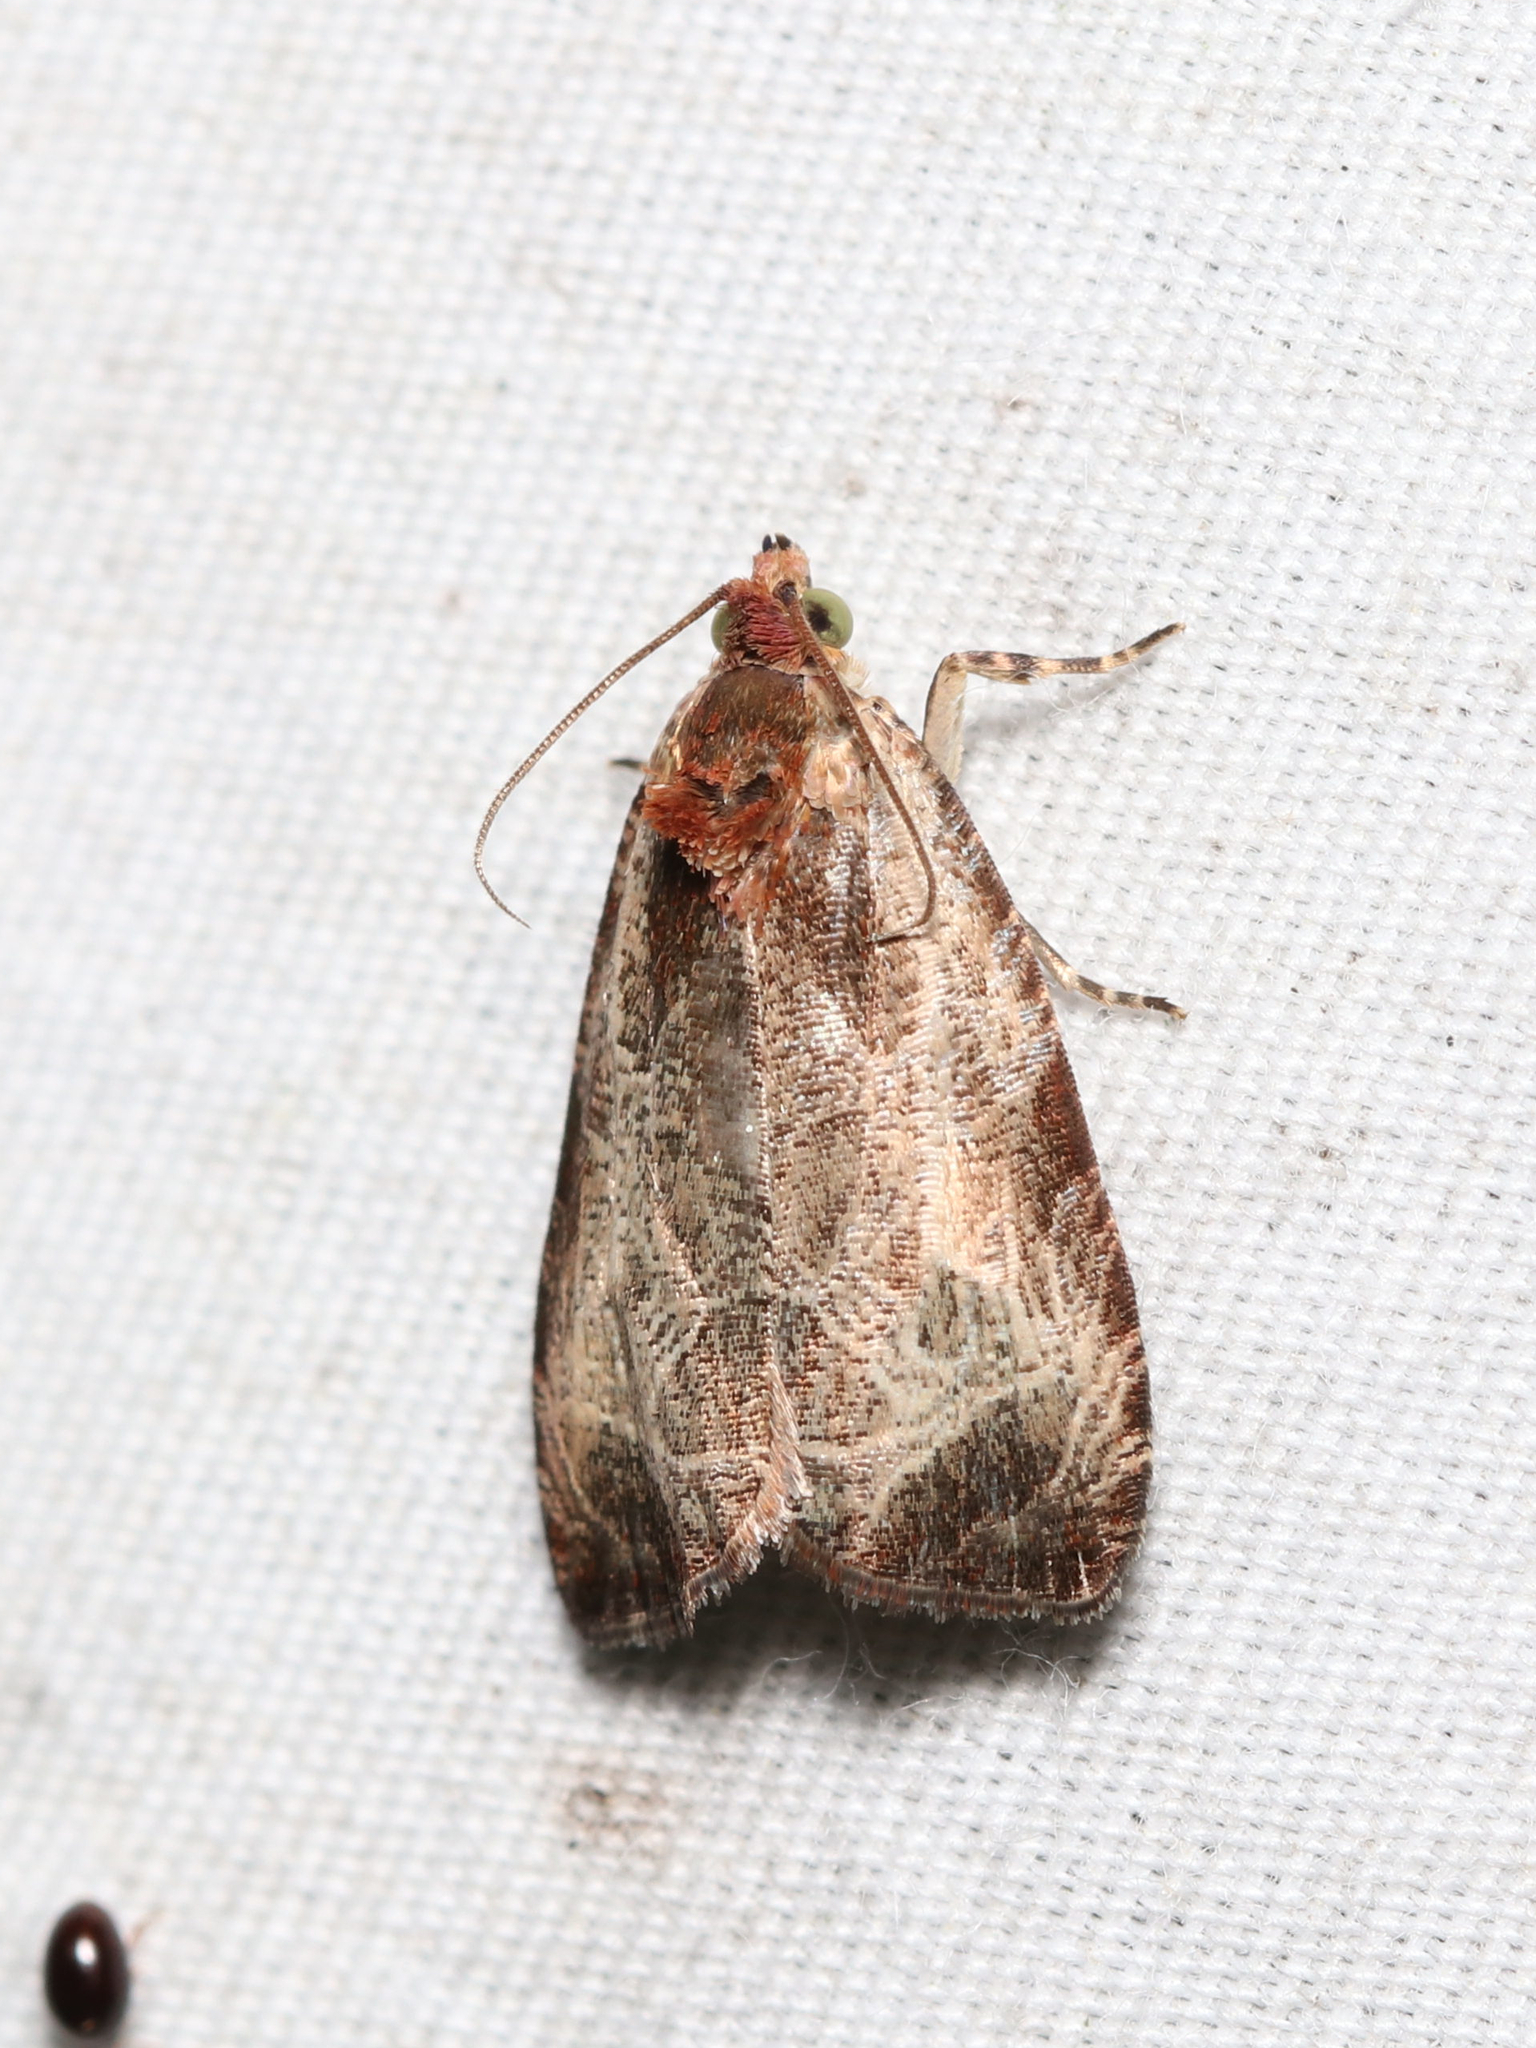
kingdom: Animalia
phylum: Arthropoda
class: Insecta
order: Lepidoptera
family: Tortricidae
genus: Olethreutes
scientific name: Olethreutes inornatana
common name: Inornate olethreutes moth
